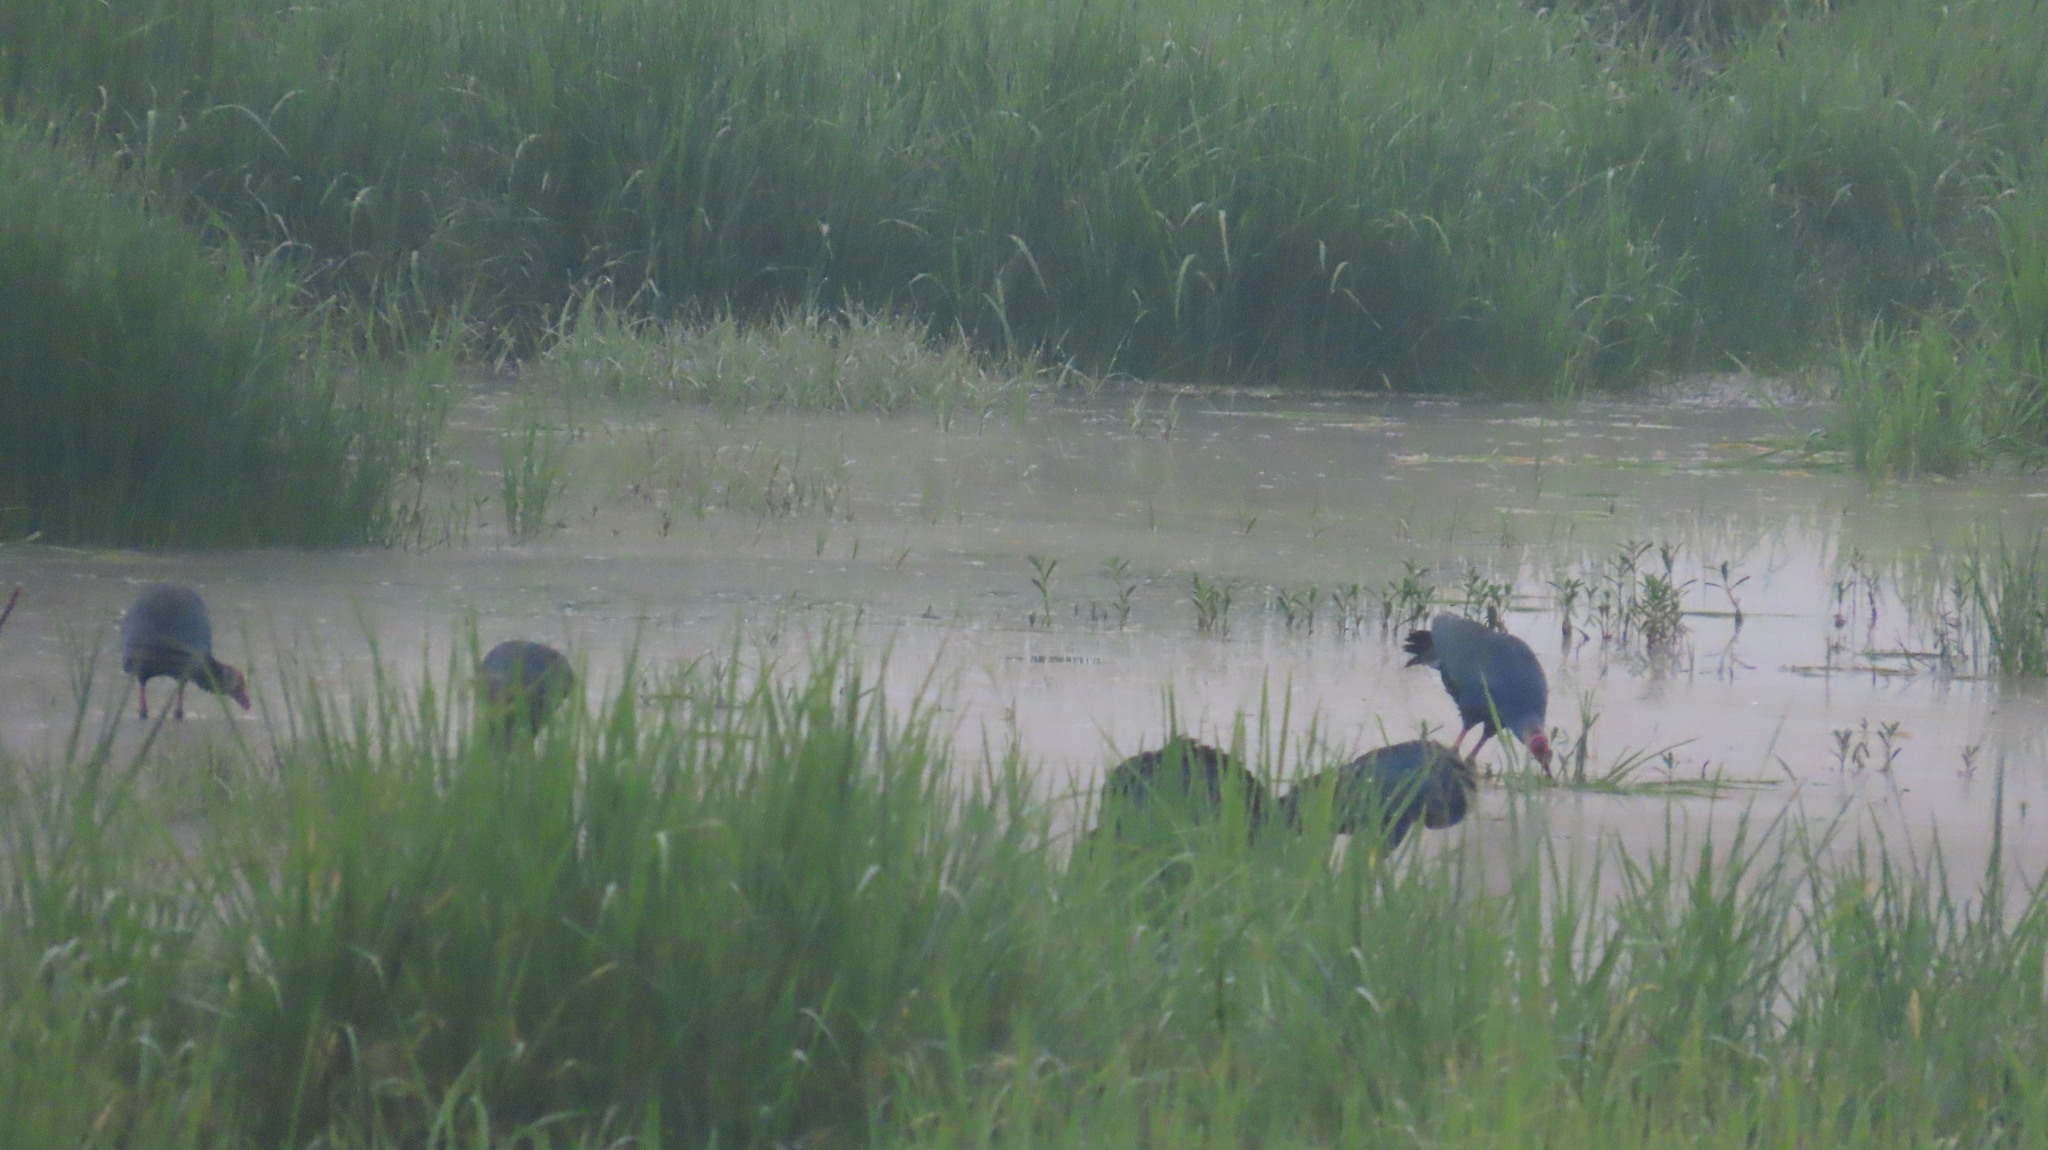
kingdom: Animalia
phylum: Chordata
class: Aves
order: Gruiformes
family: Rallidae
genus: Porphyrio
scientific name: Porphyrio porphyrio
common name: Purple swamphen
